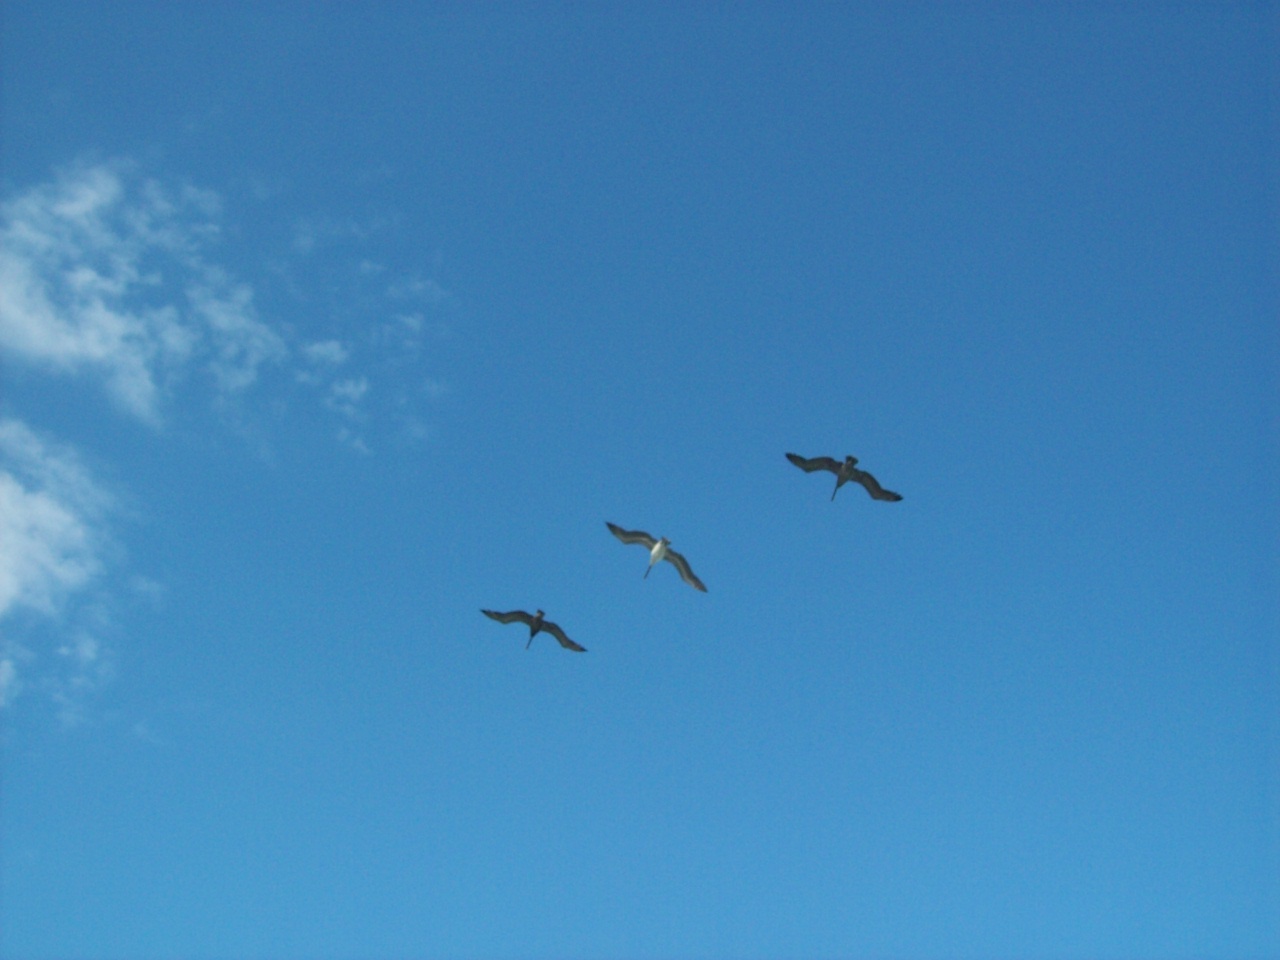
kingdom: Animalia
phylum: Chordata
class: Aves
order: Pelecaniformes
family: Pelecanidae
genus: Pelecanus
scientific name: Pelecanus occidentalis
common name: Brown pelican
